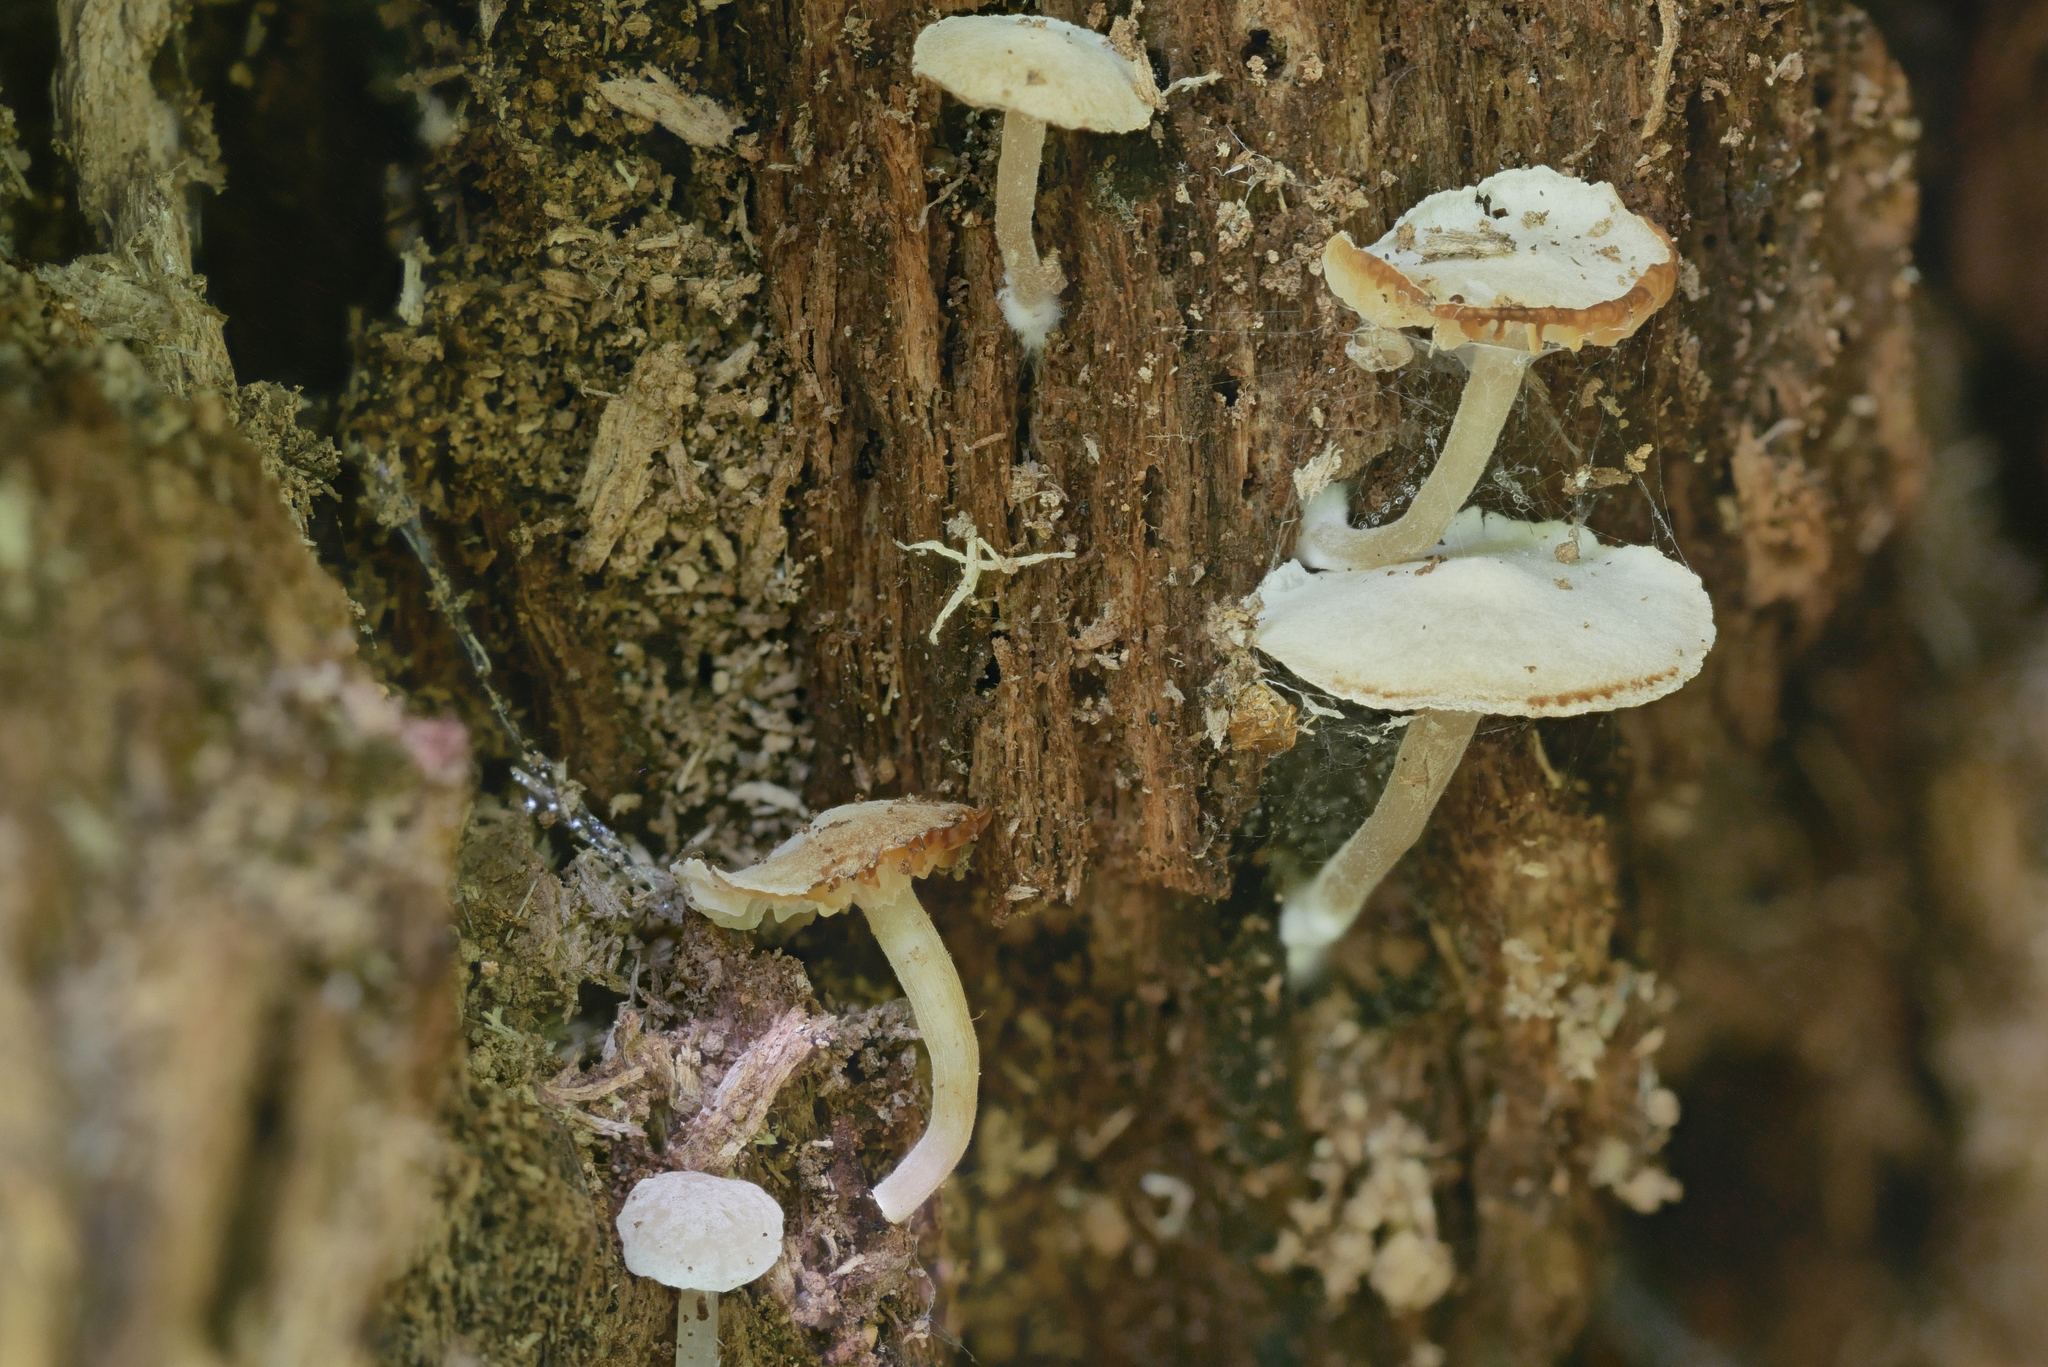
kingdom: Fungi
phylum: Basidiomycota
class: Agaricomycetes
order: Agaricales
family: Callistosporiaceae
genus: Callistosporium
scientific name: Callistosporium pseudofelleum
